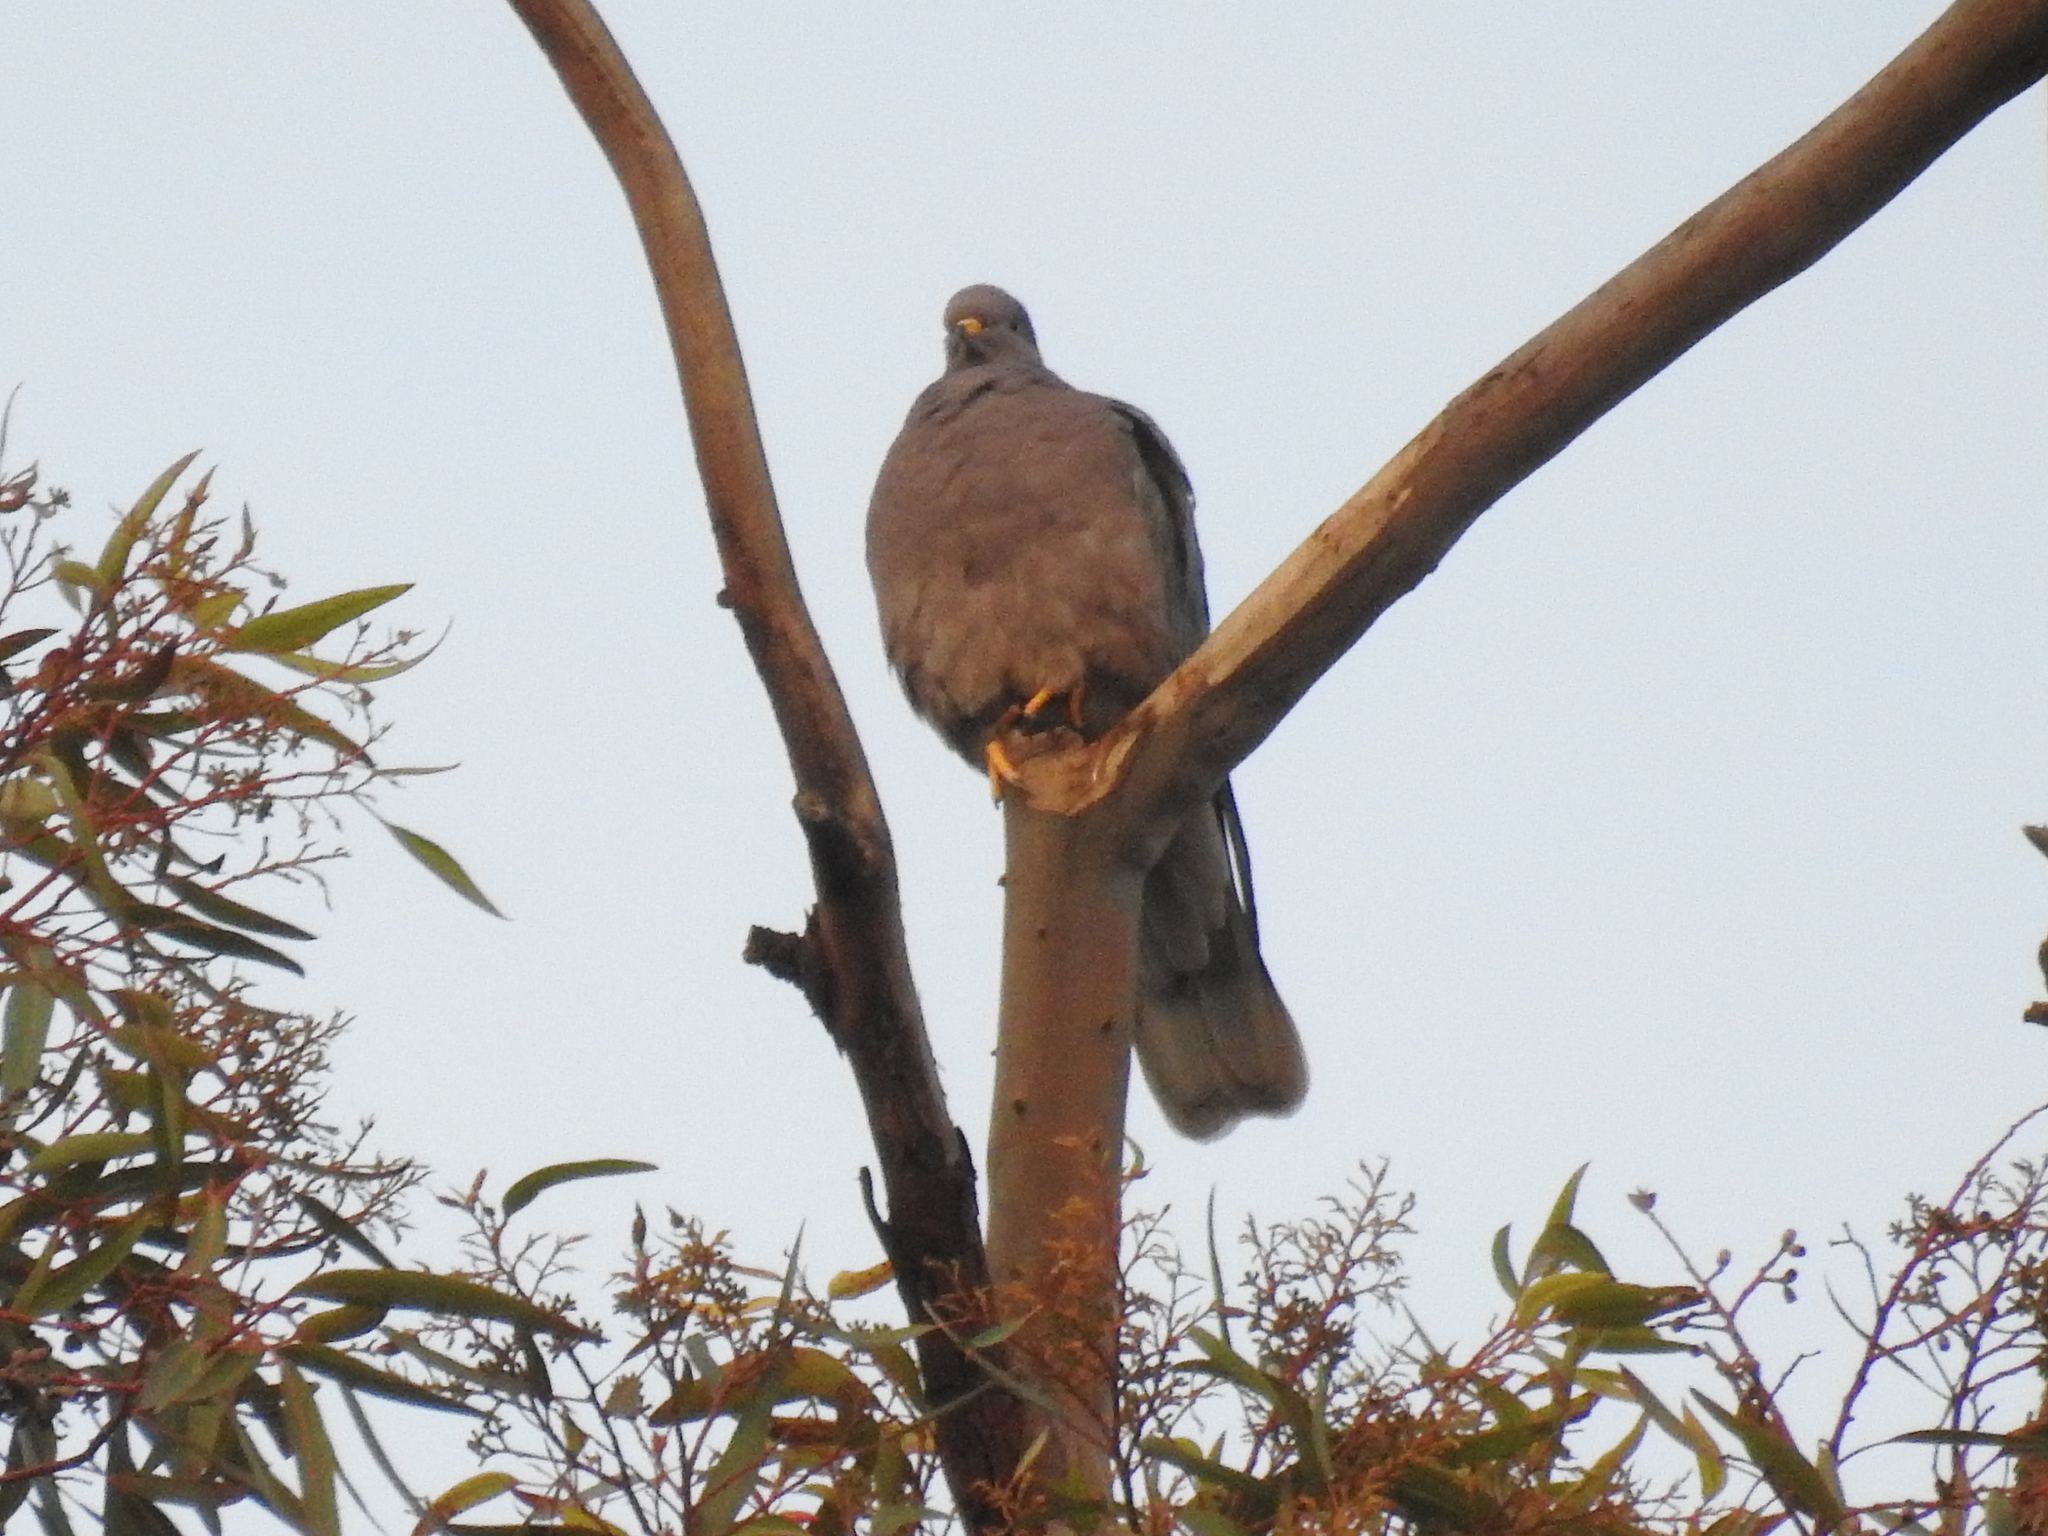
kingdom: Animalia
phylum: Chordata
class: Aves
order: Columbiformes
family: Columbidae
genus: Patagioenas
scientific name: Patagioenas fasciata
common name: Band-tailed pigeon
